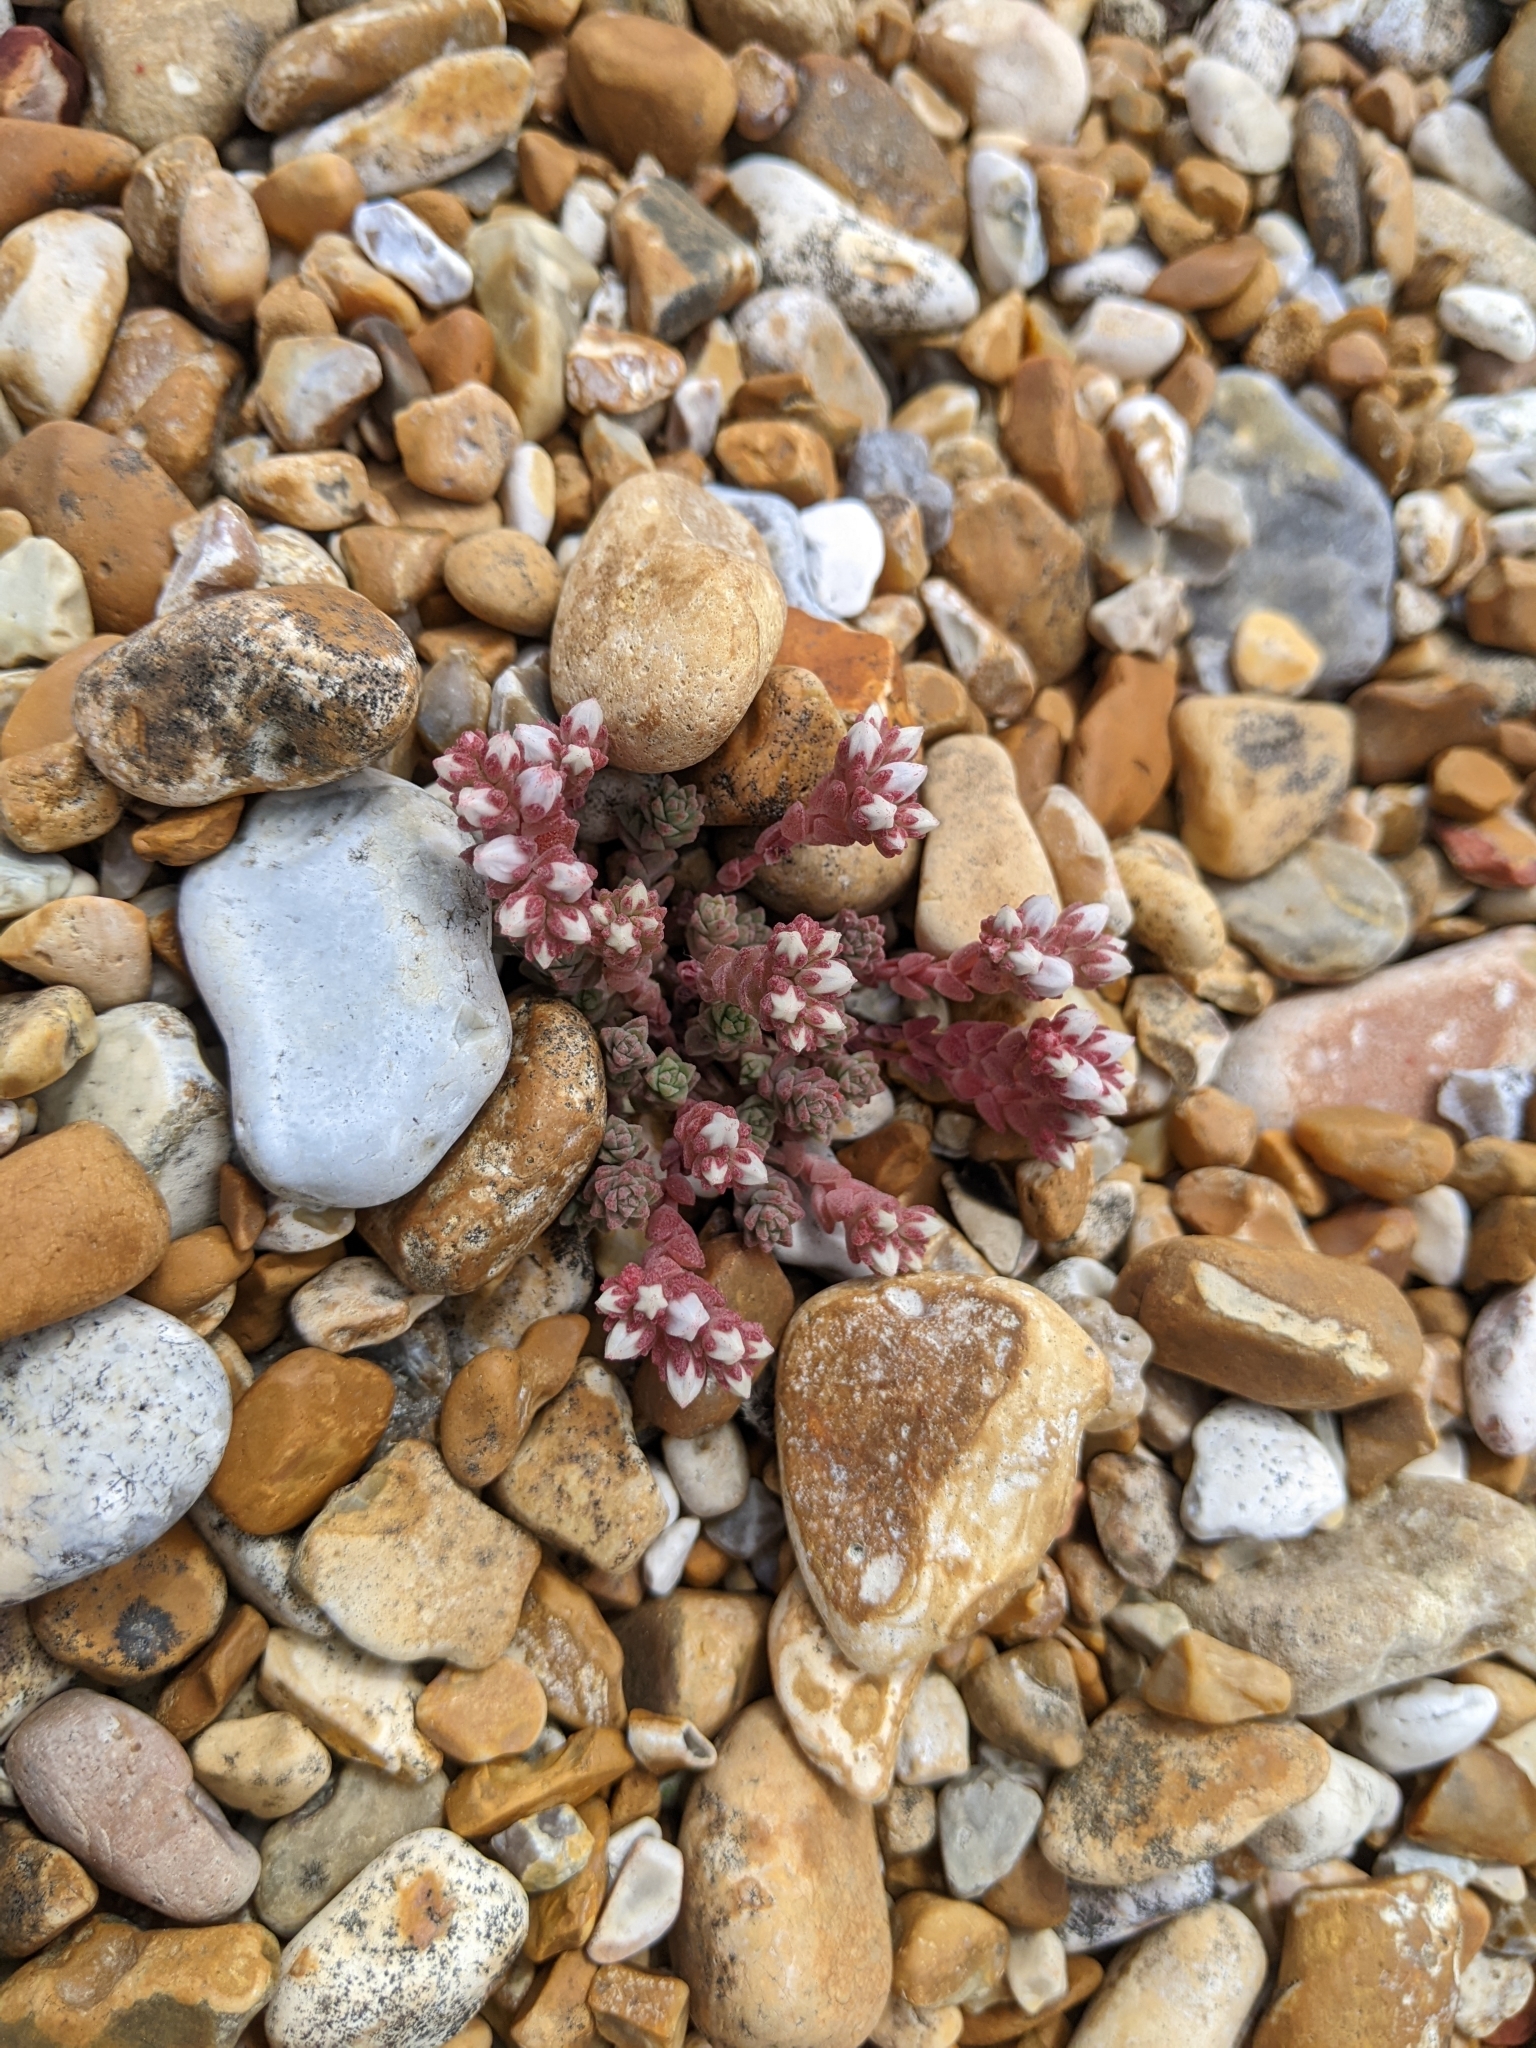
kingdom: Plantae
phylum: Tracheophyta
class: Magnoliopsida
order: Saxifragales
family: Crassulaceae
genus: Sedum
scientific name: Sedum anglicum
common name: English stonecrop
